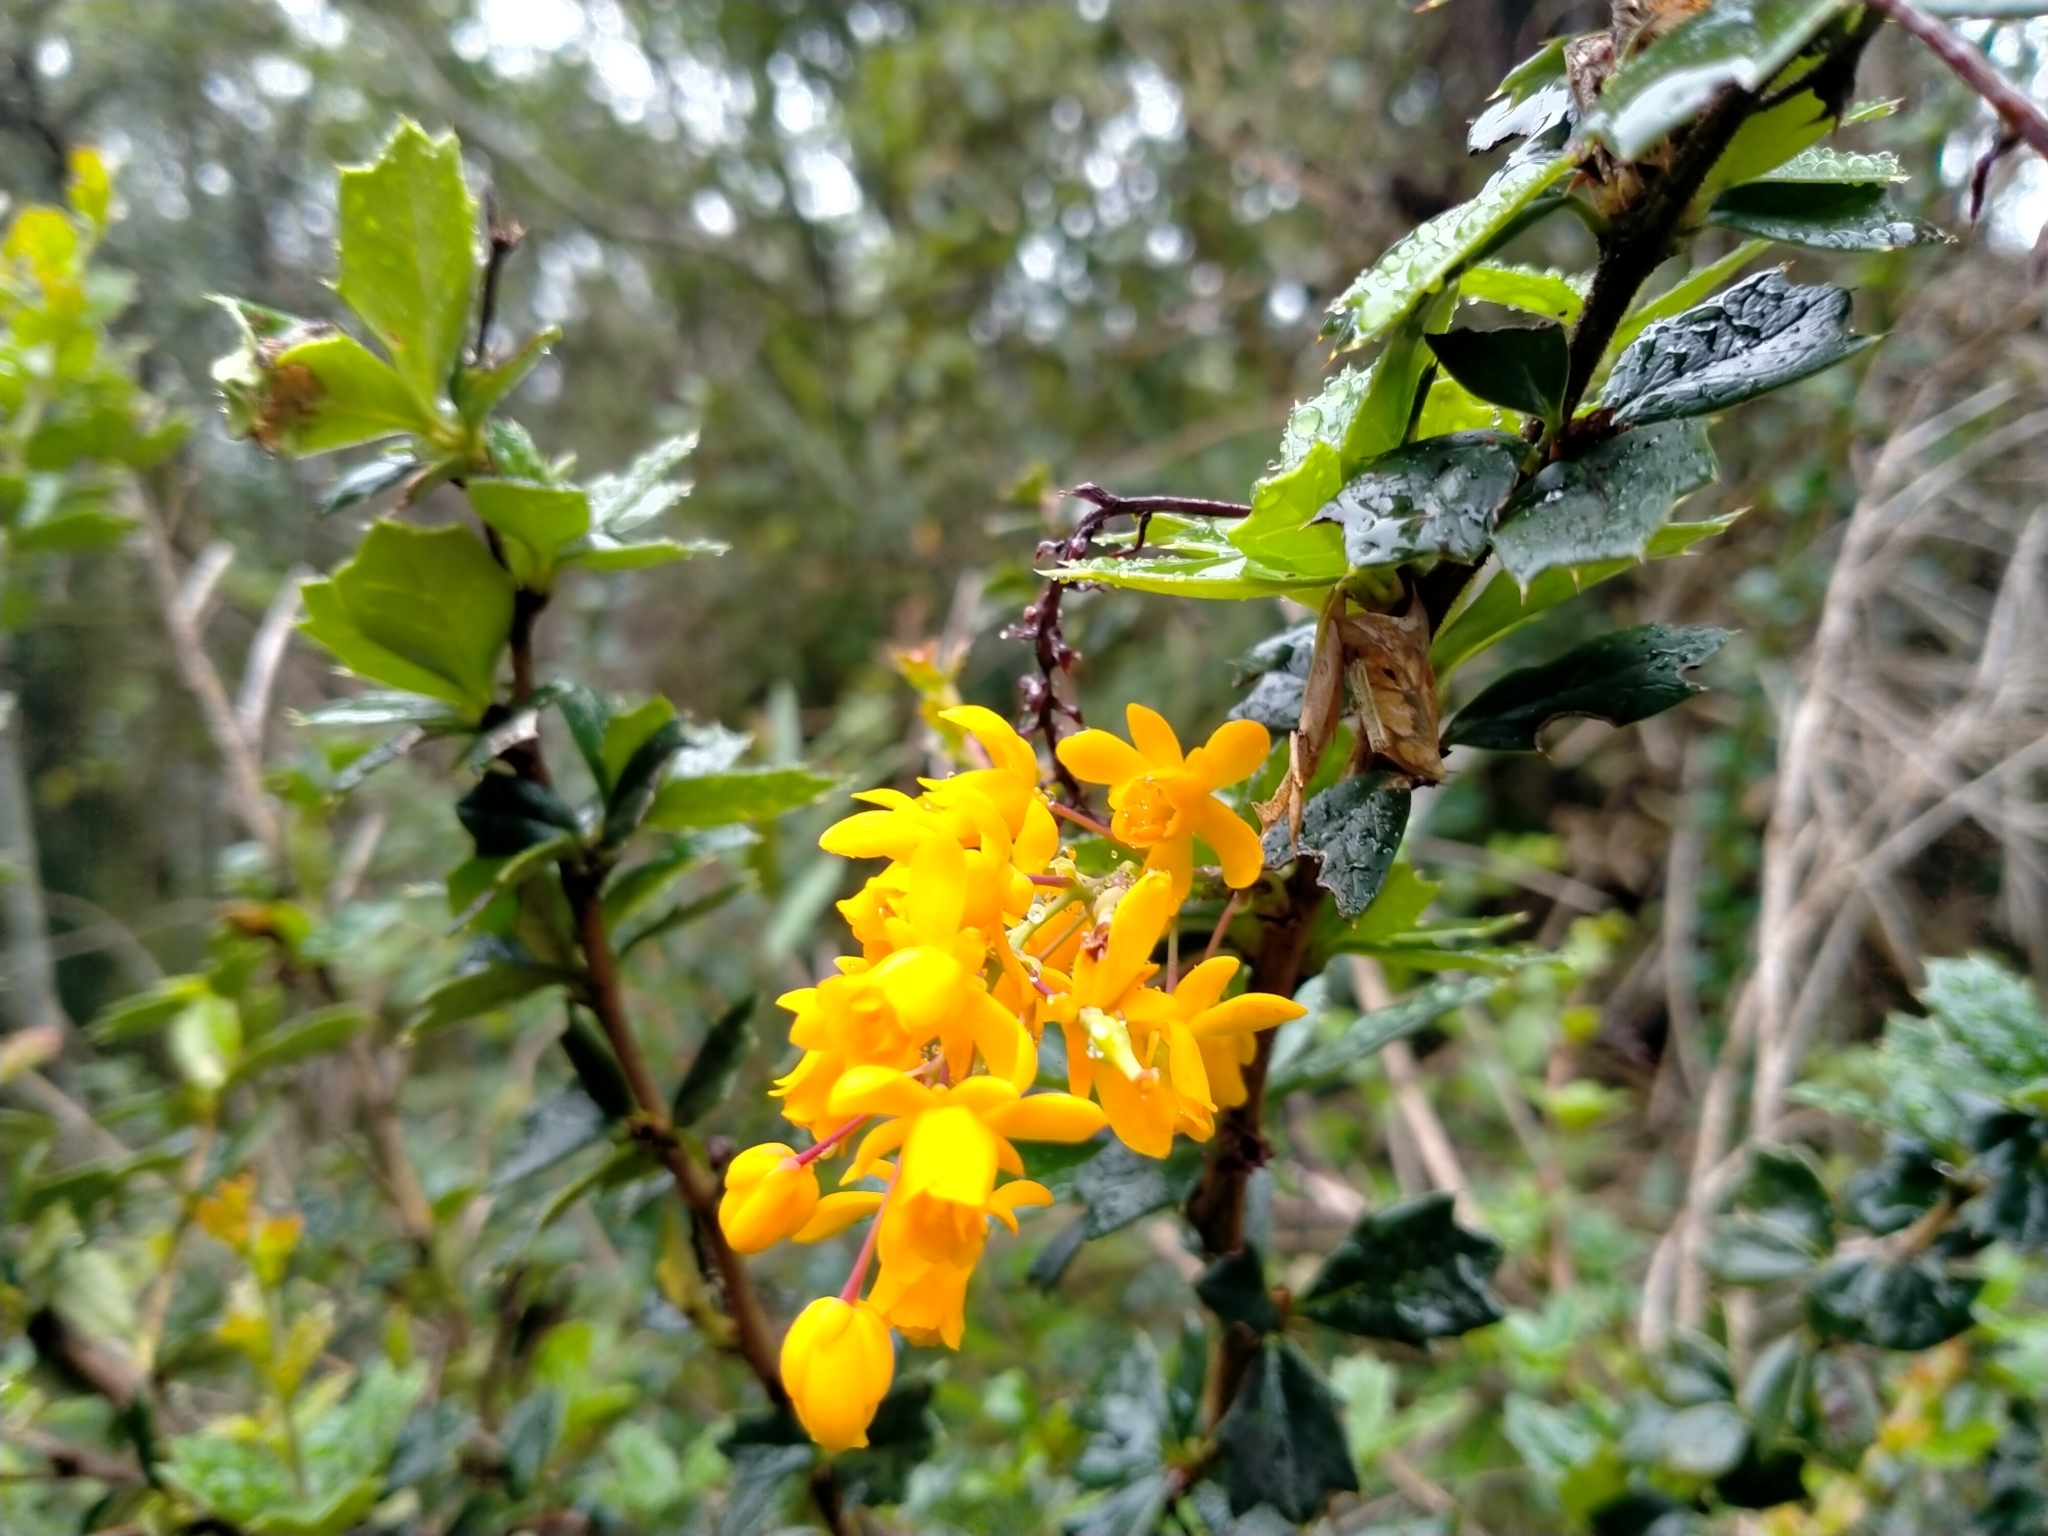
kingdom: Plantae
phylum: Tracheophyta
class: Magnoliopsida
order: Ranunculales
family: Berberidaceae
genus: Berberis
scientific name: Berberis darwinii
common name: Darwin's barberry
